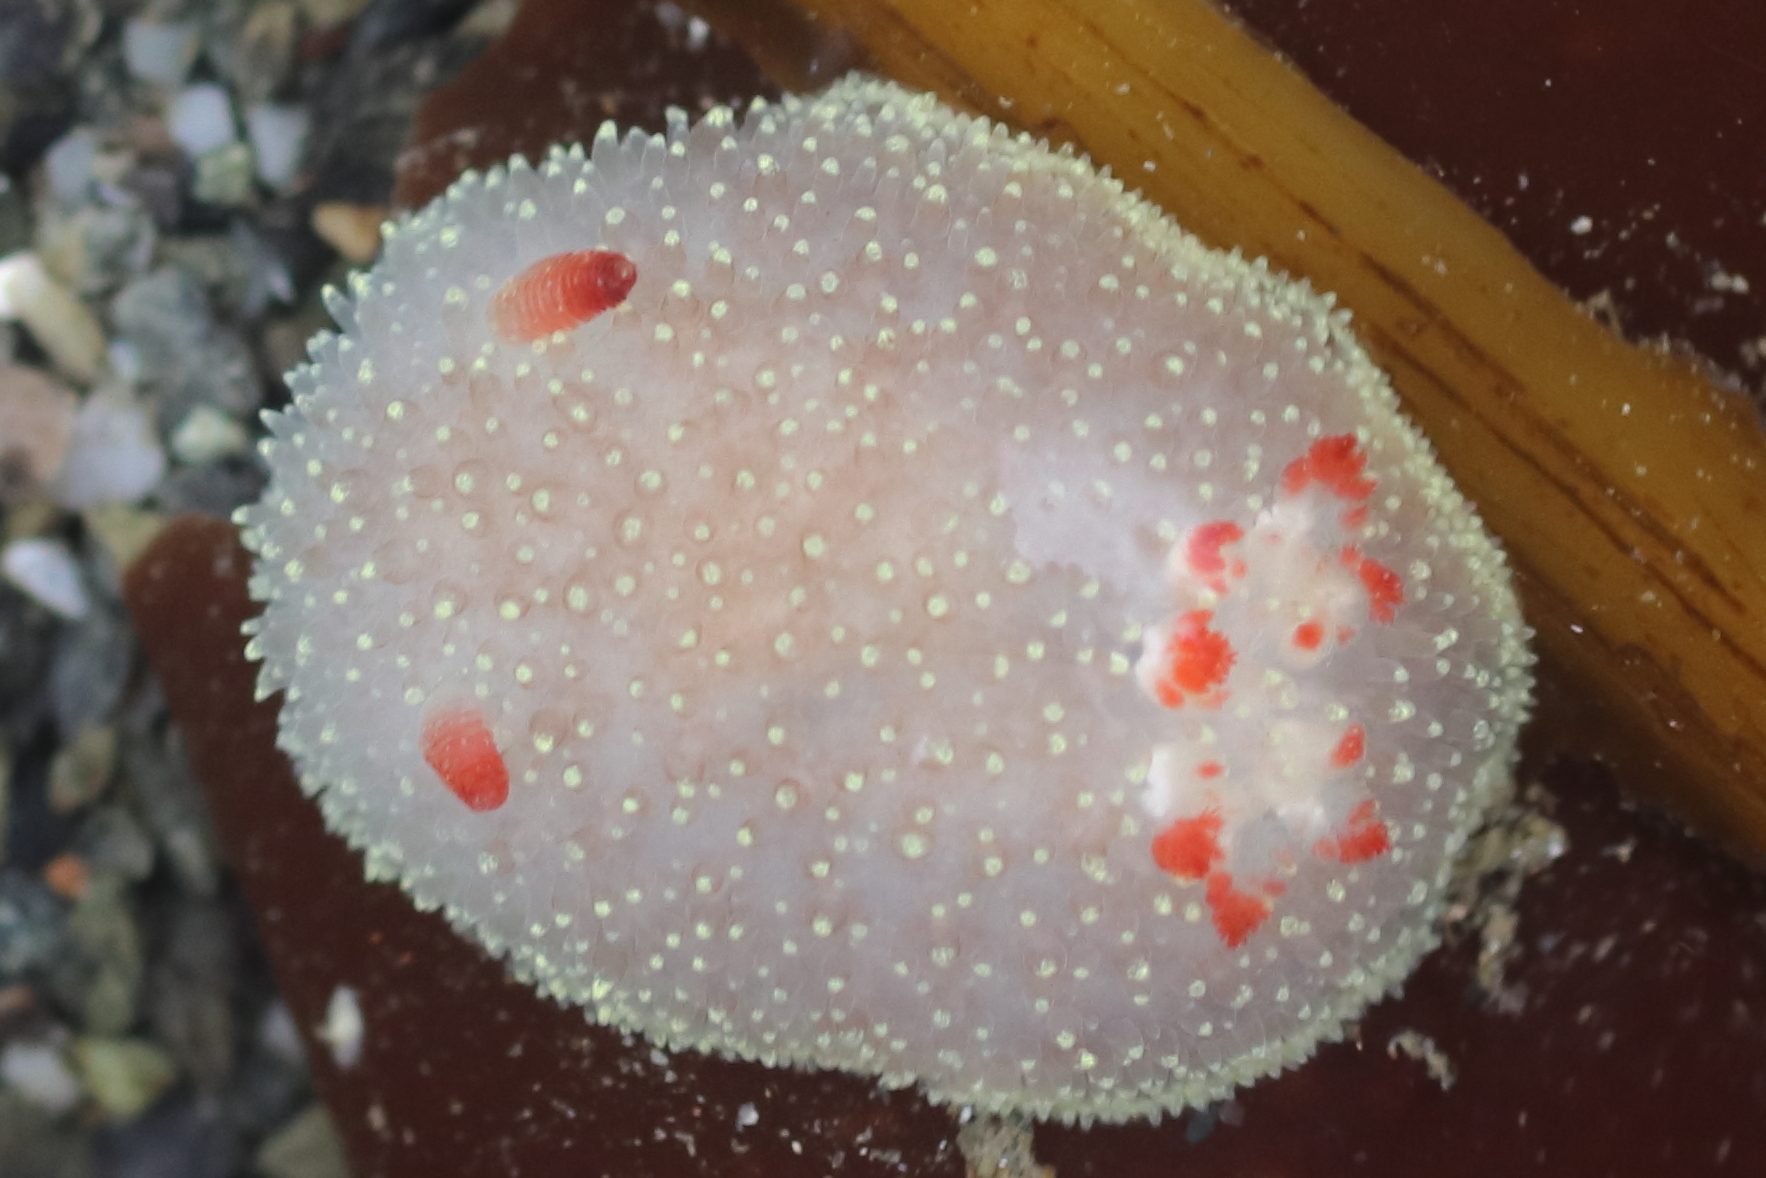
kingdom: Animalia
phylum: Mollusca
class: Gastropoda
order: Nudibranchia
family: Onchidorididae
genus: Acanthodoris
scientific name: Acanthodoris nanaimoensis
